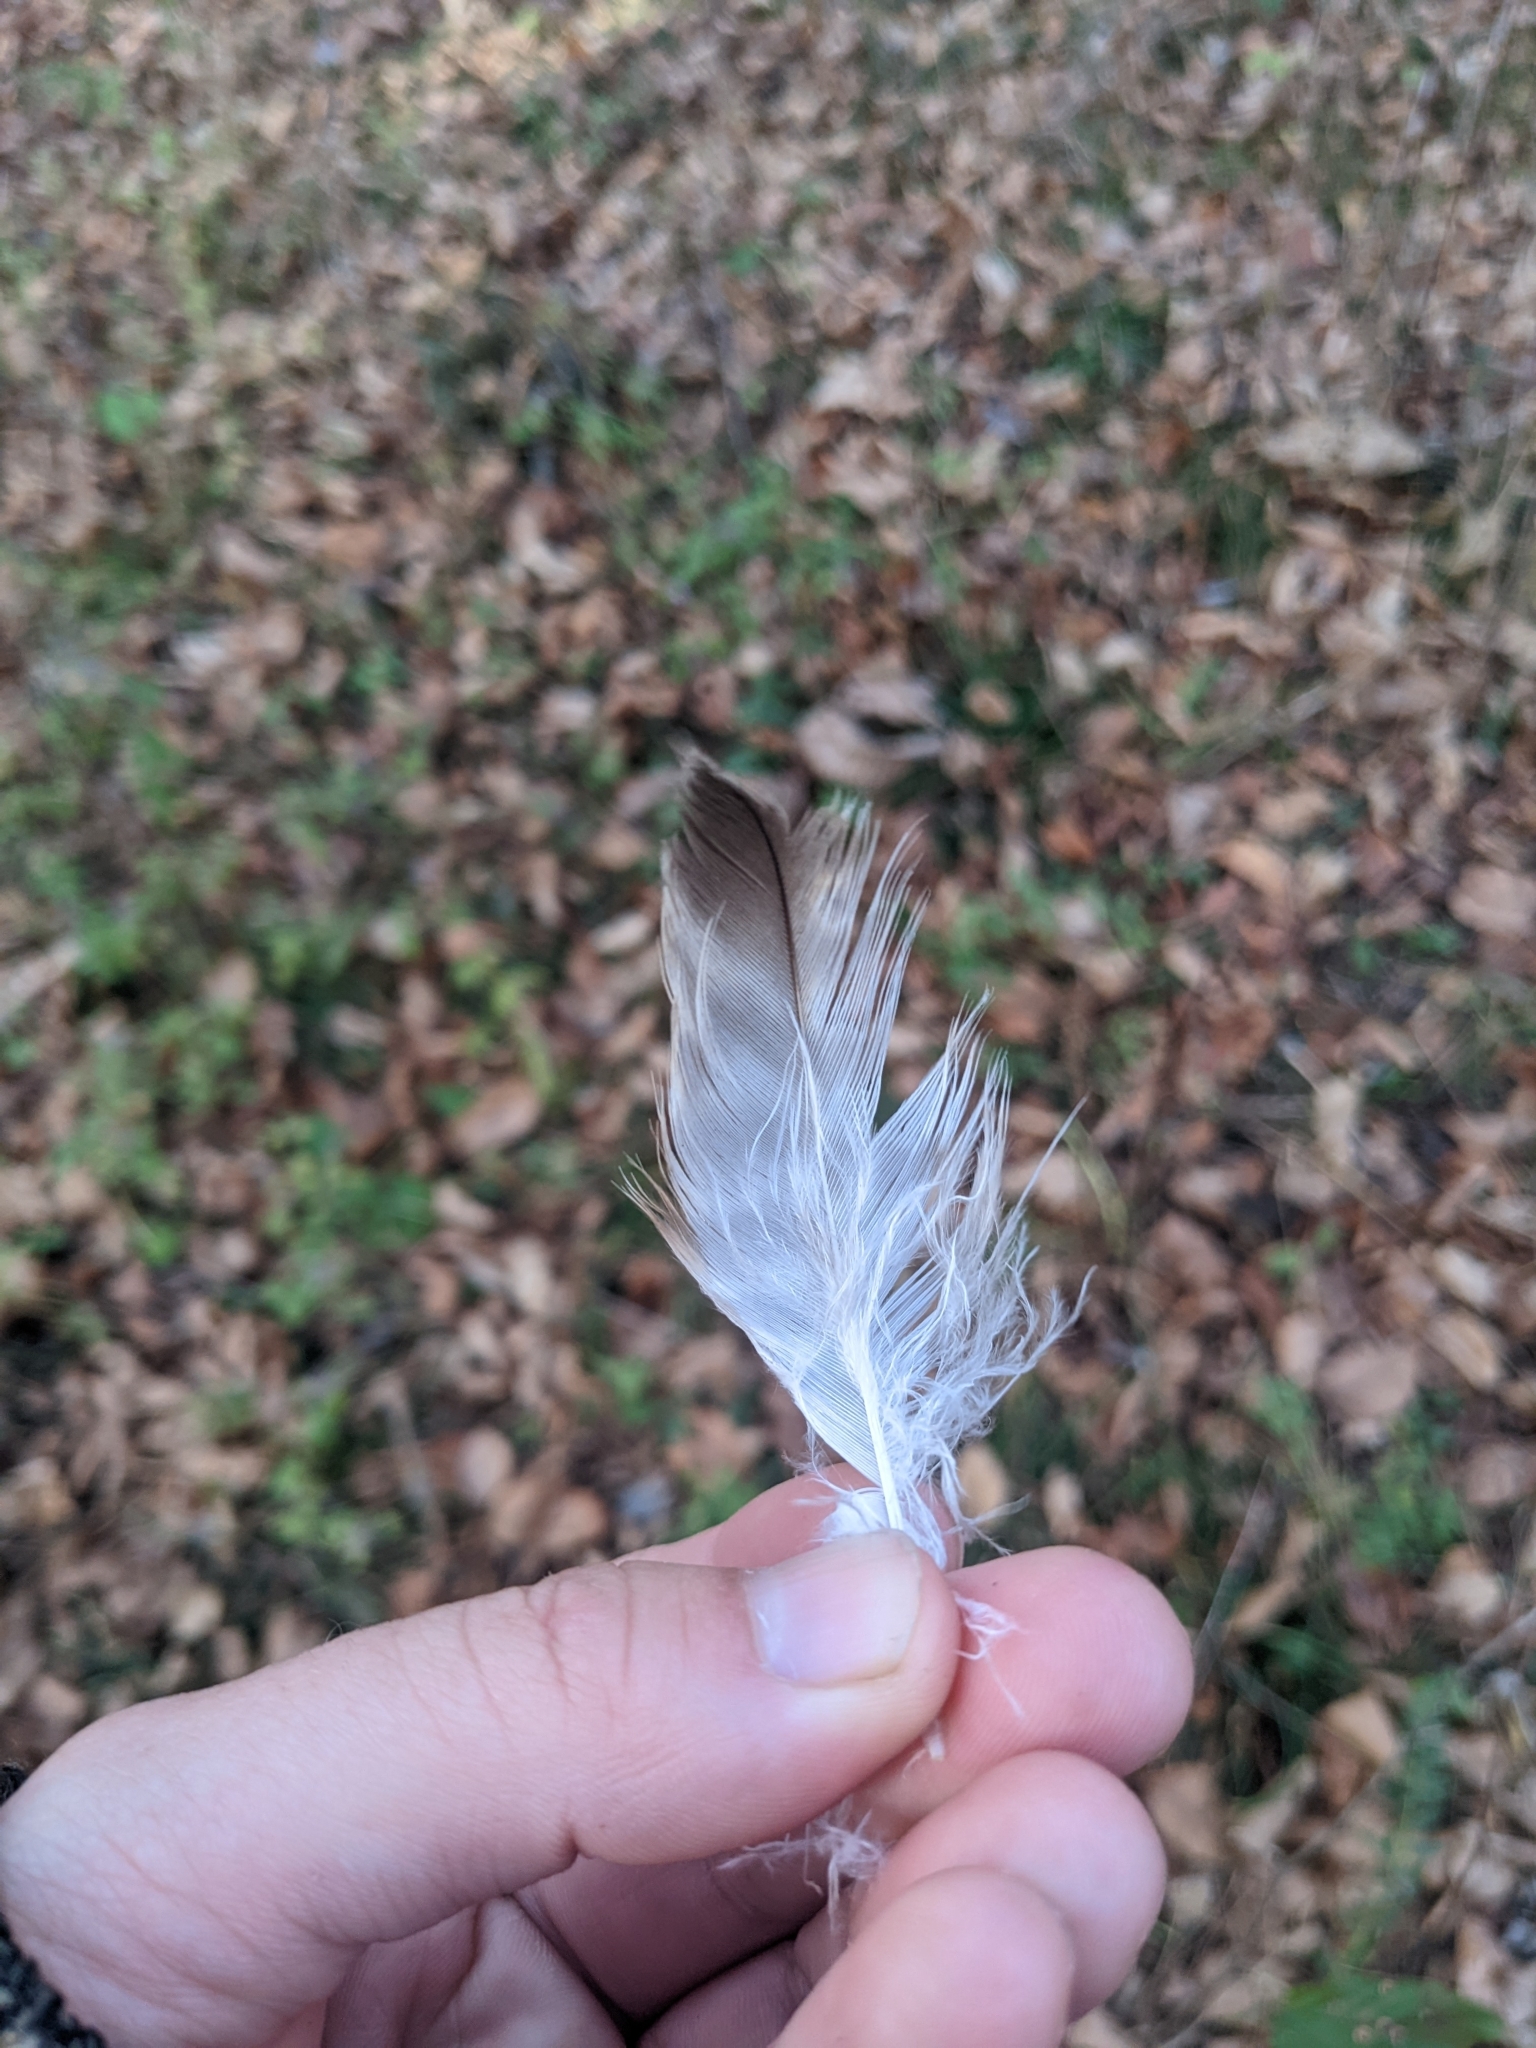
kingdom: Animalia
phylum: Chordata
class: Aves
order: Accipitriformes
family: Accipitridae
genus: Buteo
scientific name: Buteo jamaicensis
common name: Red-tailed hawk
